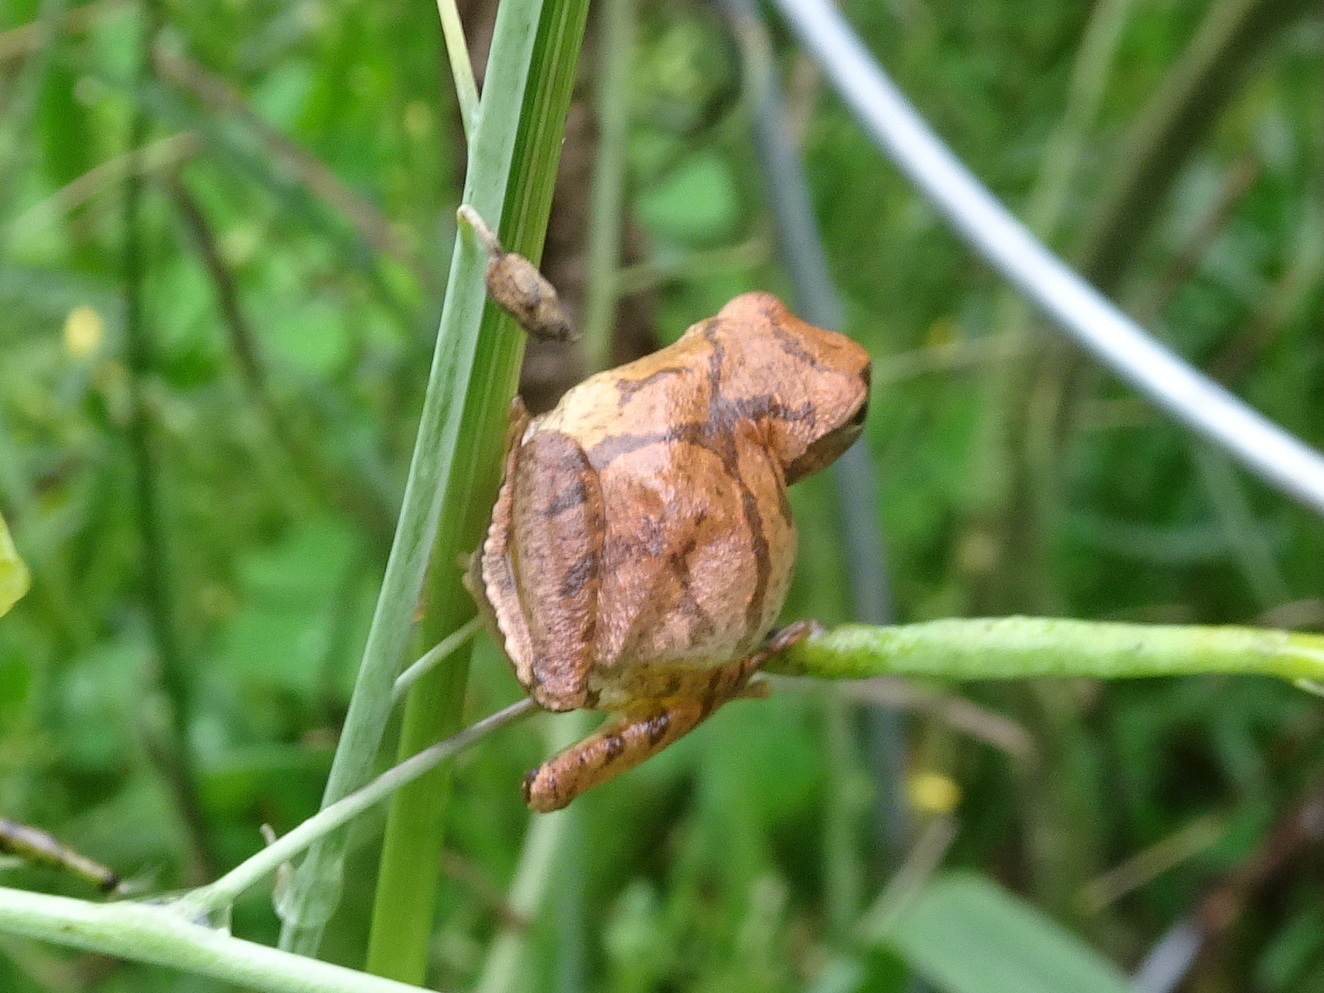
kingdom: Animalia
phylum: Chordata
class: Amphibia
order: Anura
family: Hylidae
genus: Pseudacris
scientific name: Pseudacris crucifer
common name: Spring peeper
